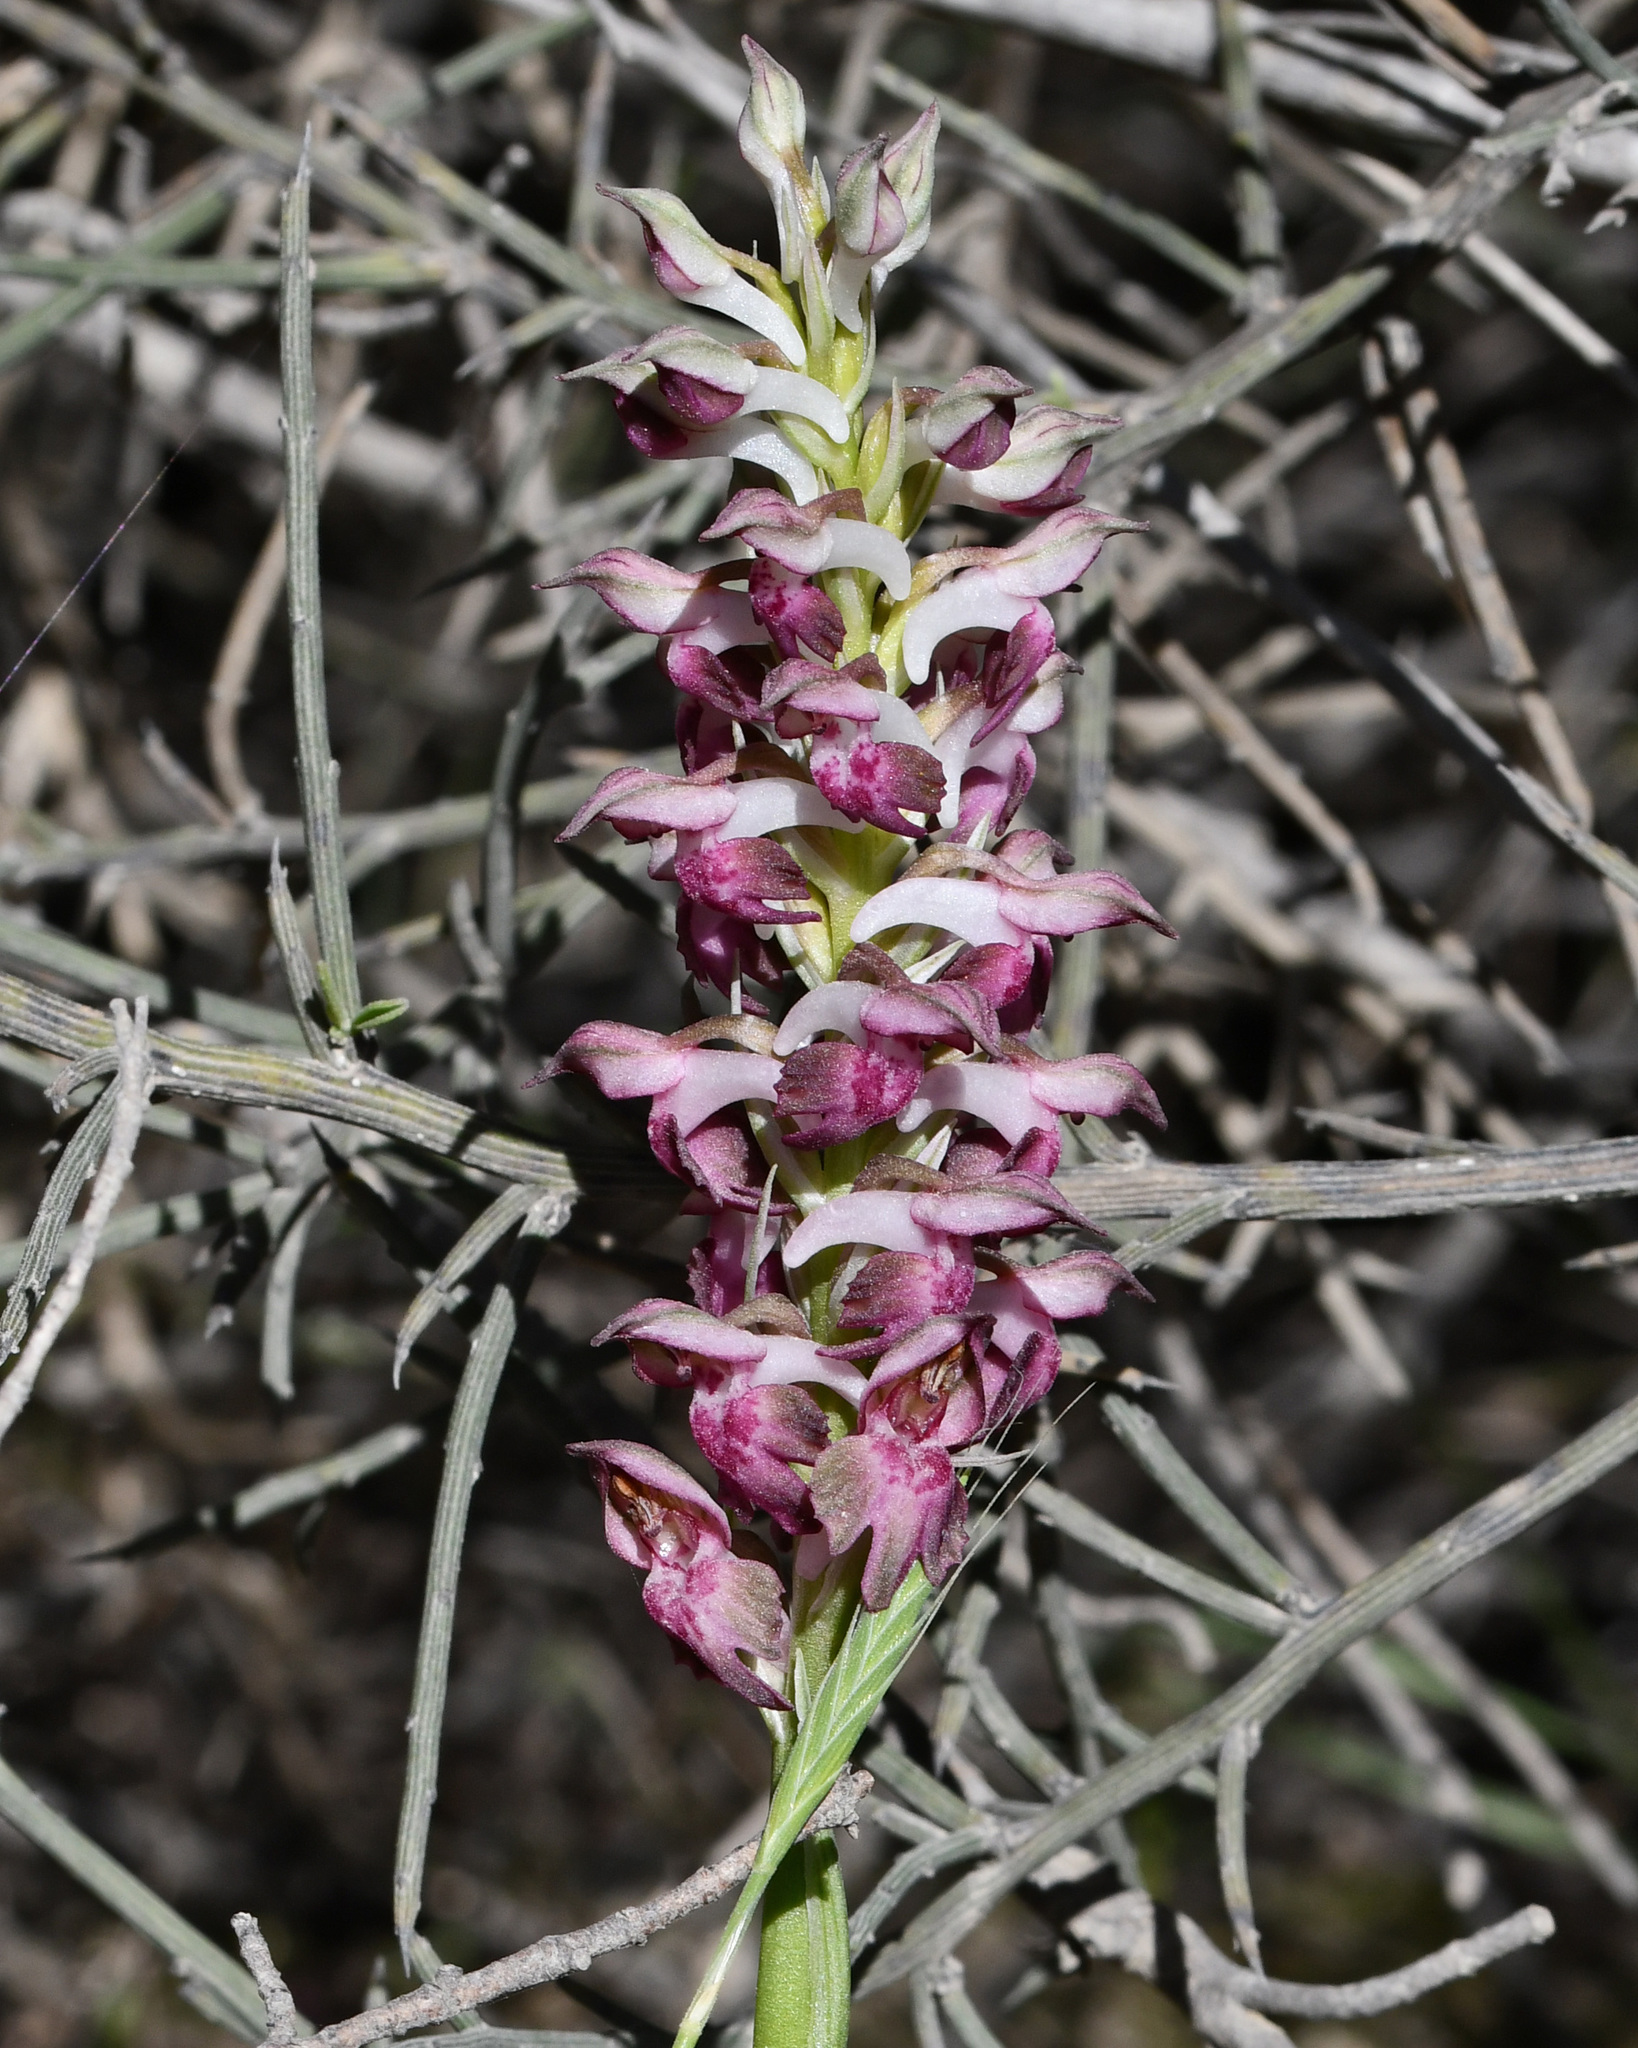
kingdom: Plantae
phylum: Tracheophyta
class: Liliopsida
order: Asparagales
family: Orchidaceae
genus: Anacamptis
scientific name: Anacamptis coriophora
